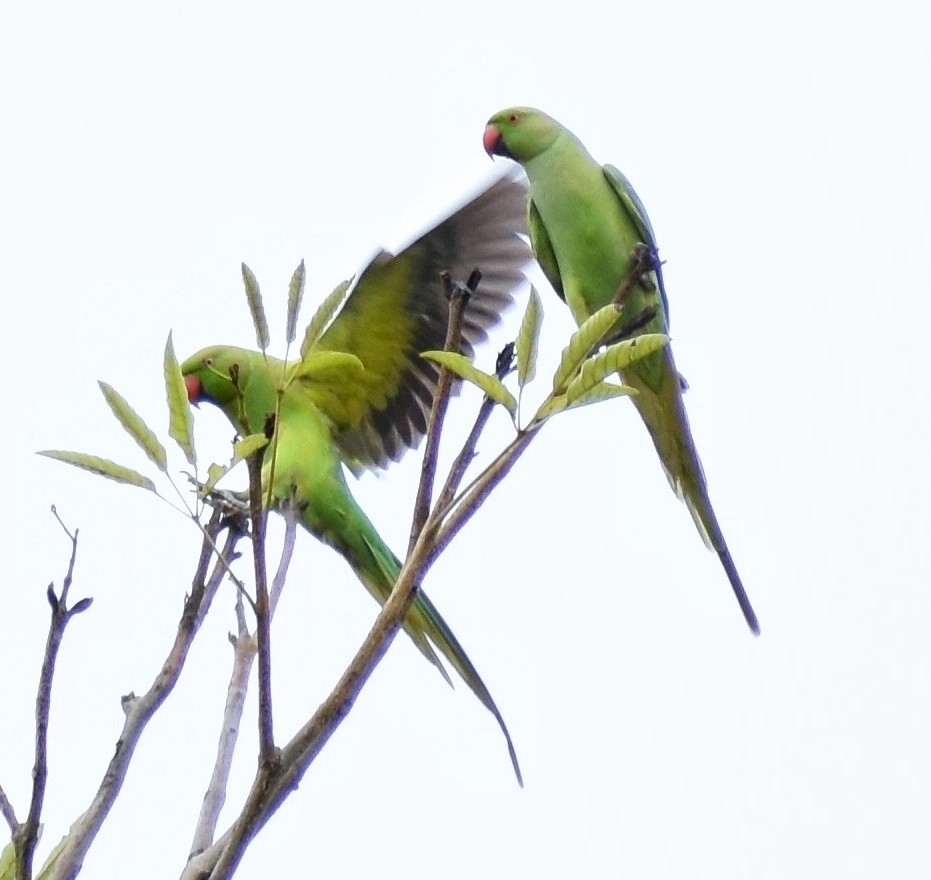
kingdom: Animalia
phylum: Chordata
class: Aves
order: Psittaciformes
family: Psittacidae
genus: Psittacula
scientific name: Psittacula krameri
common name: Rose-ringed parakeet
